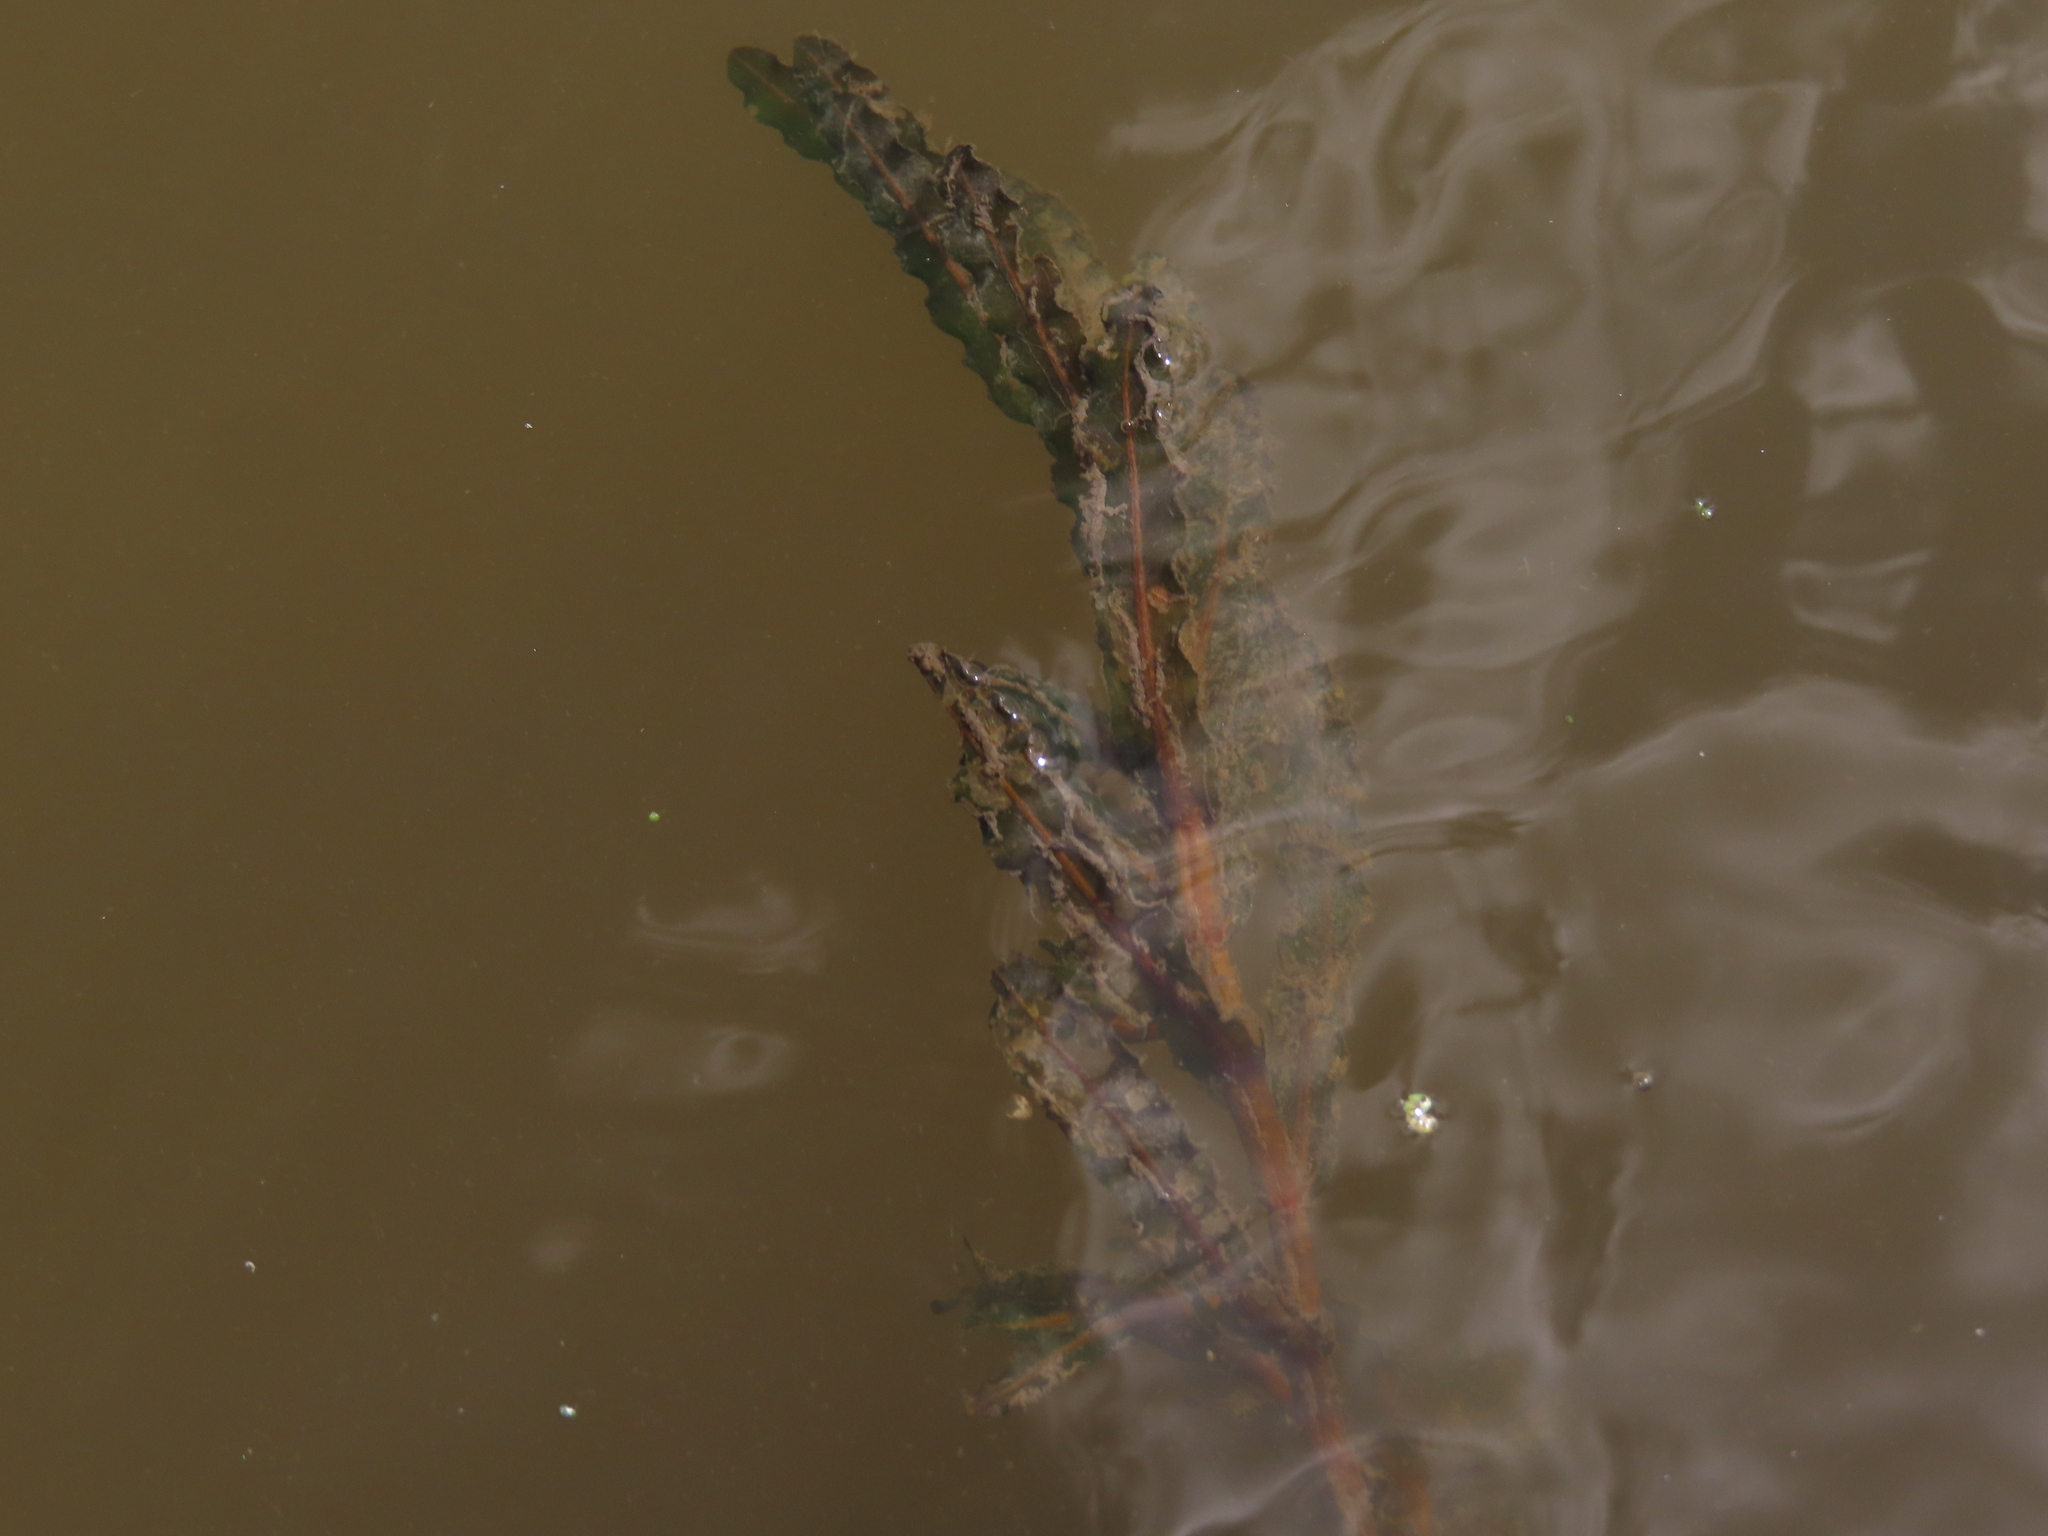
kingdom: Plantae
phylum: Tracheophyta
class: Liliopsida
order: Alismatales
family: Potamogetonaceae
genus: Potamogeton
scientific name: Potamogeton crispus
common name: Curled pondweed
